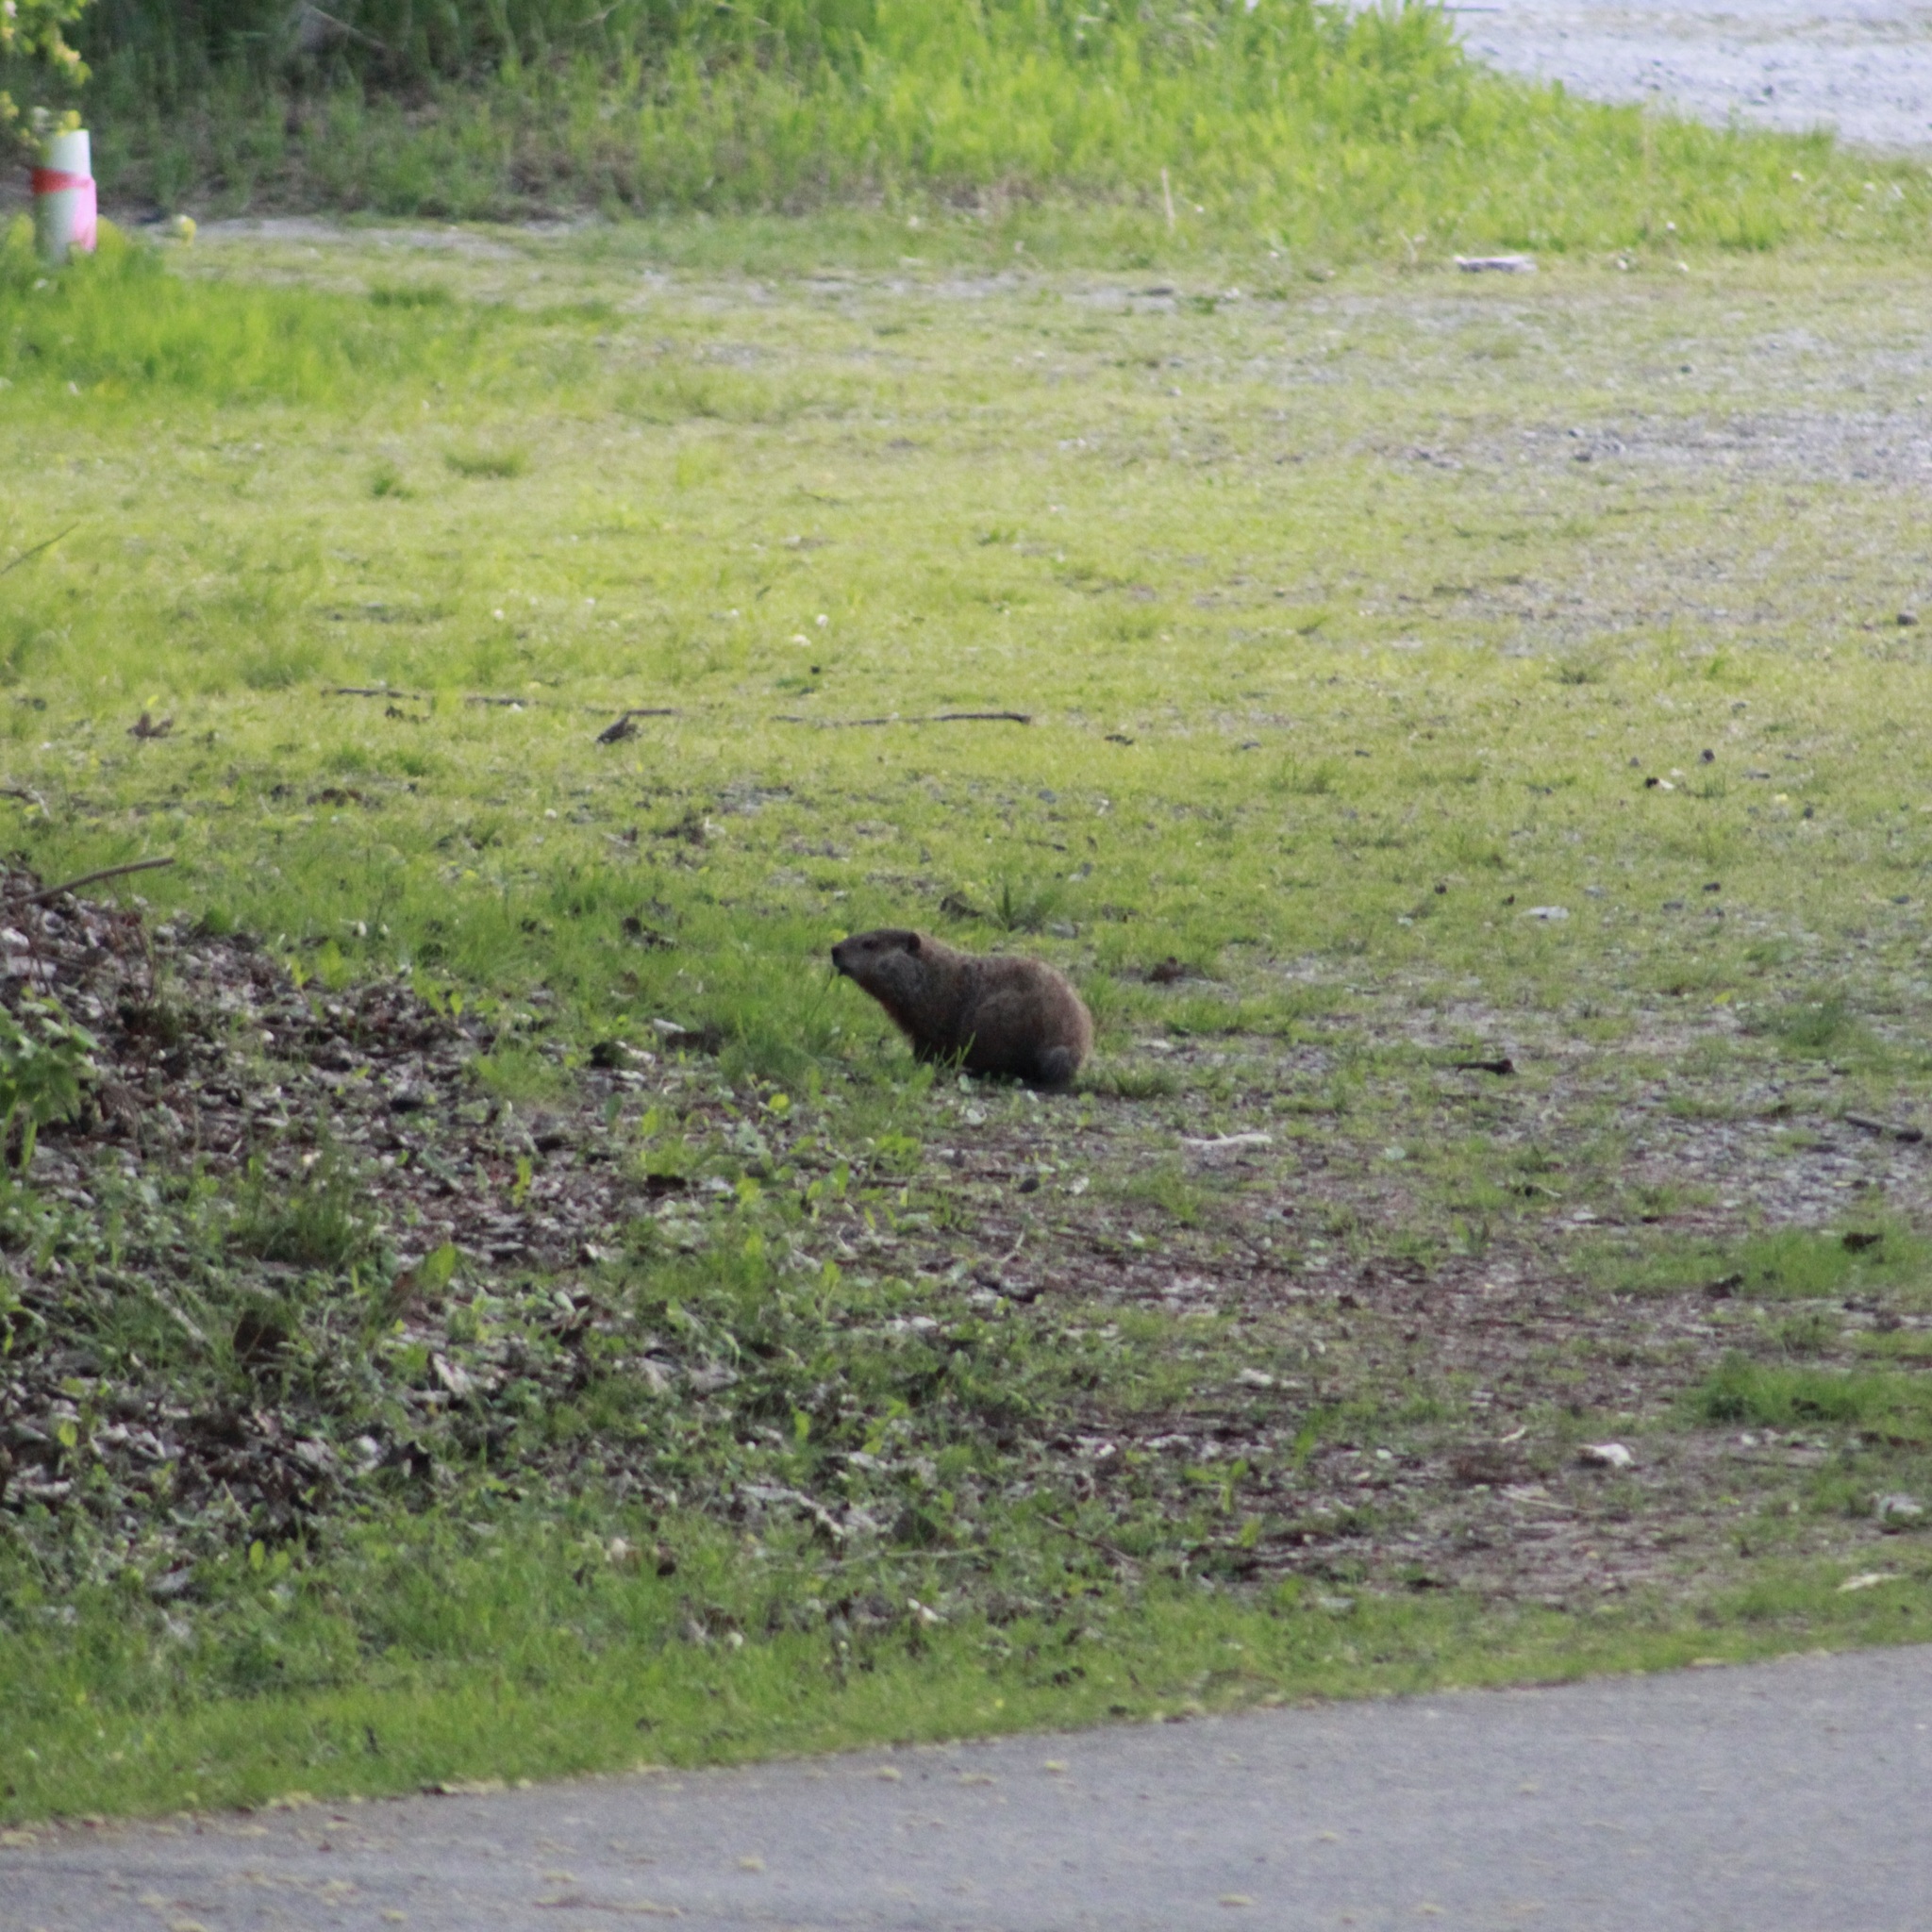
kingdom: Animalia
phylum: Chordata
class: Mammalia
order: Rodentia
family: Sciuridae
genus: Marmota
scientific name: Marmota monax
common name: Groundhog
